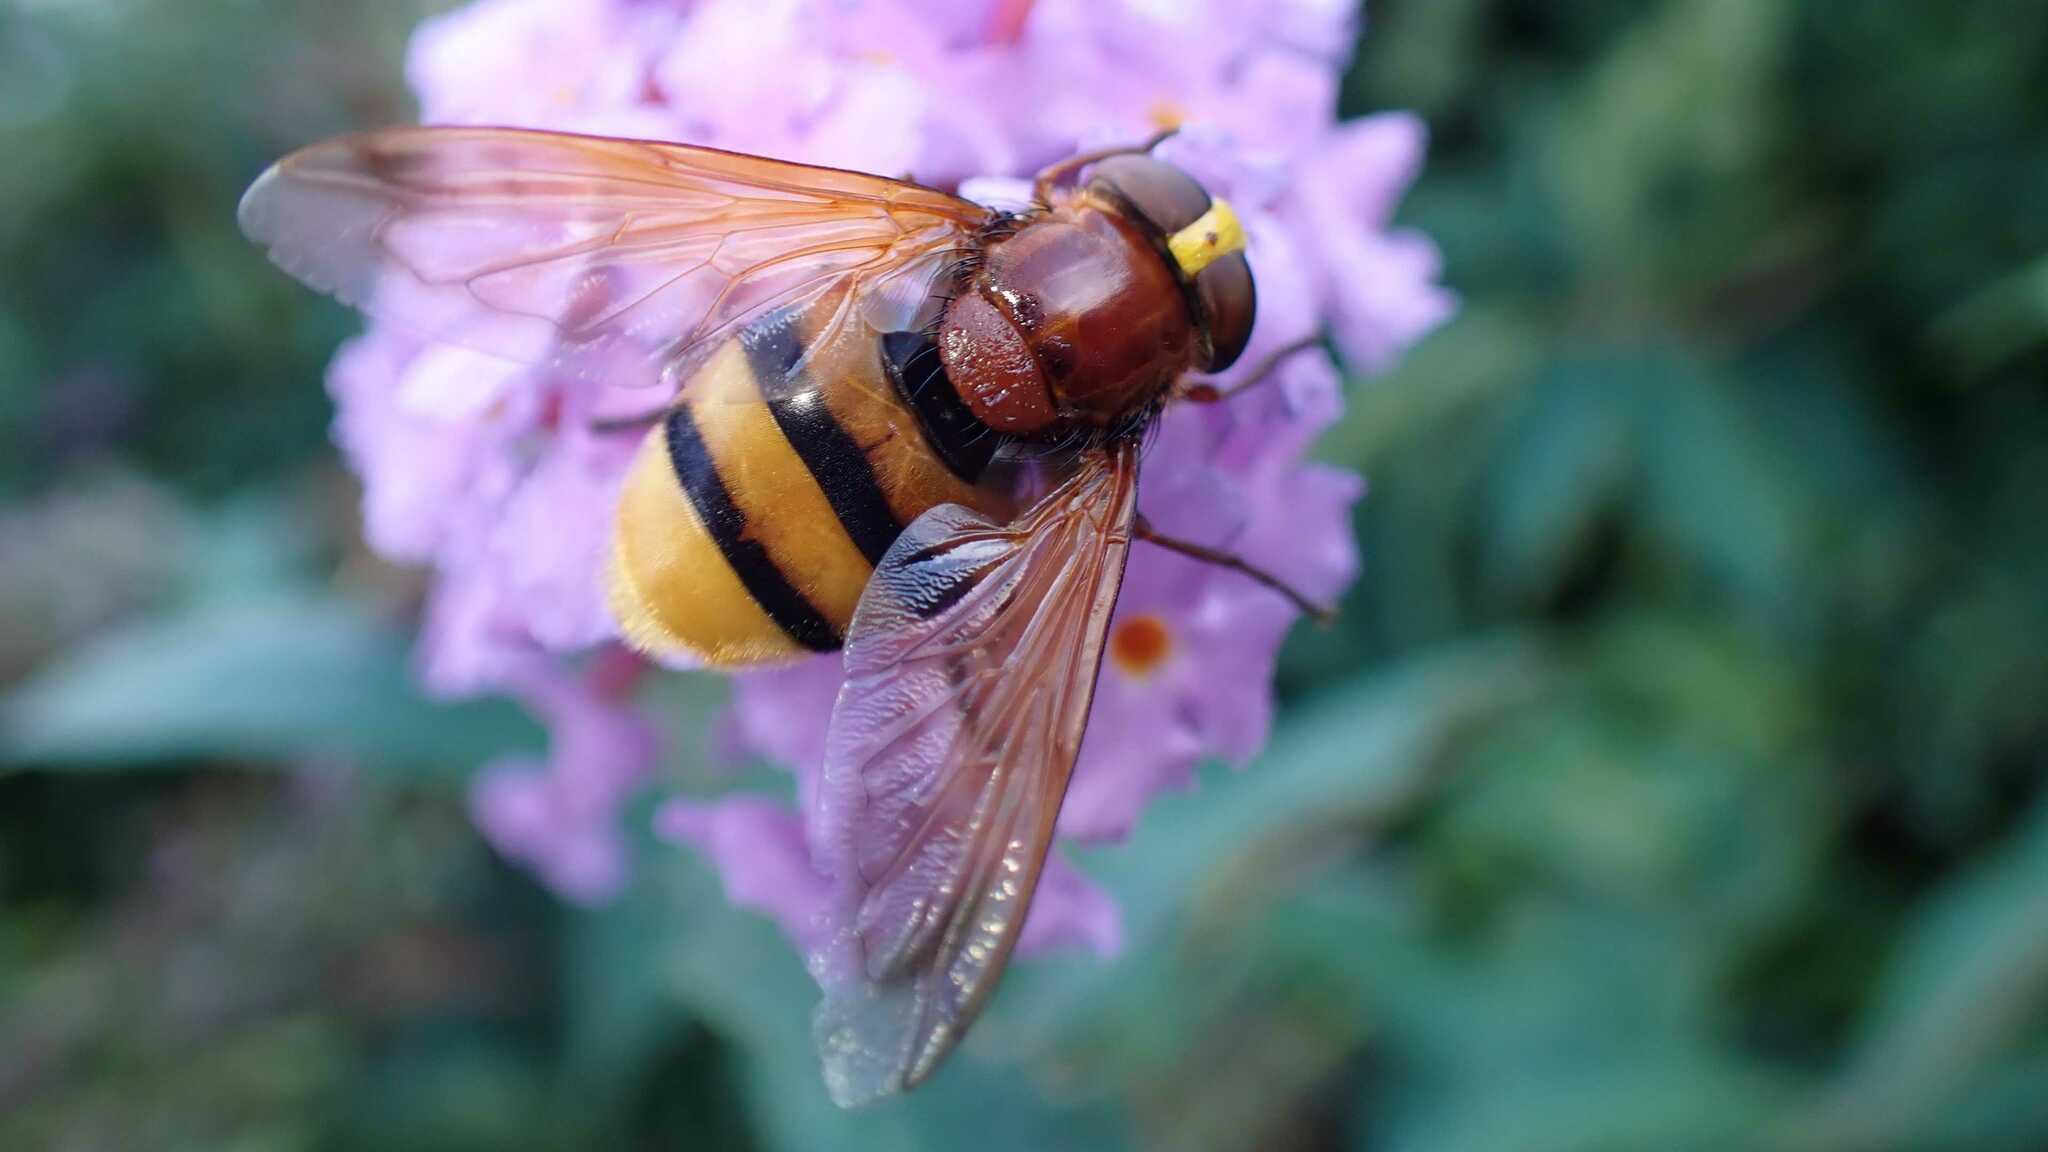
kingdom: Animalia
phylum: Arthropoda
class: Insecta
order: Diptera
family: Syrphidae
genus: Volucella
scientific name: Volucella zonaria
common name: Hornet hoverfly
